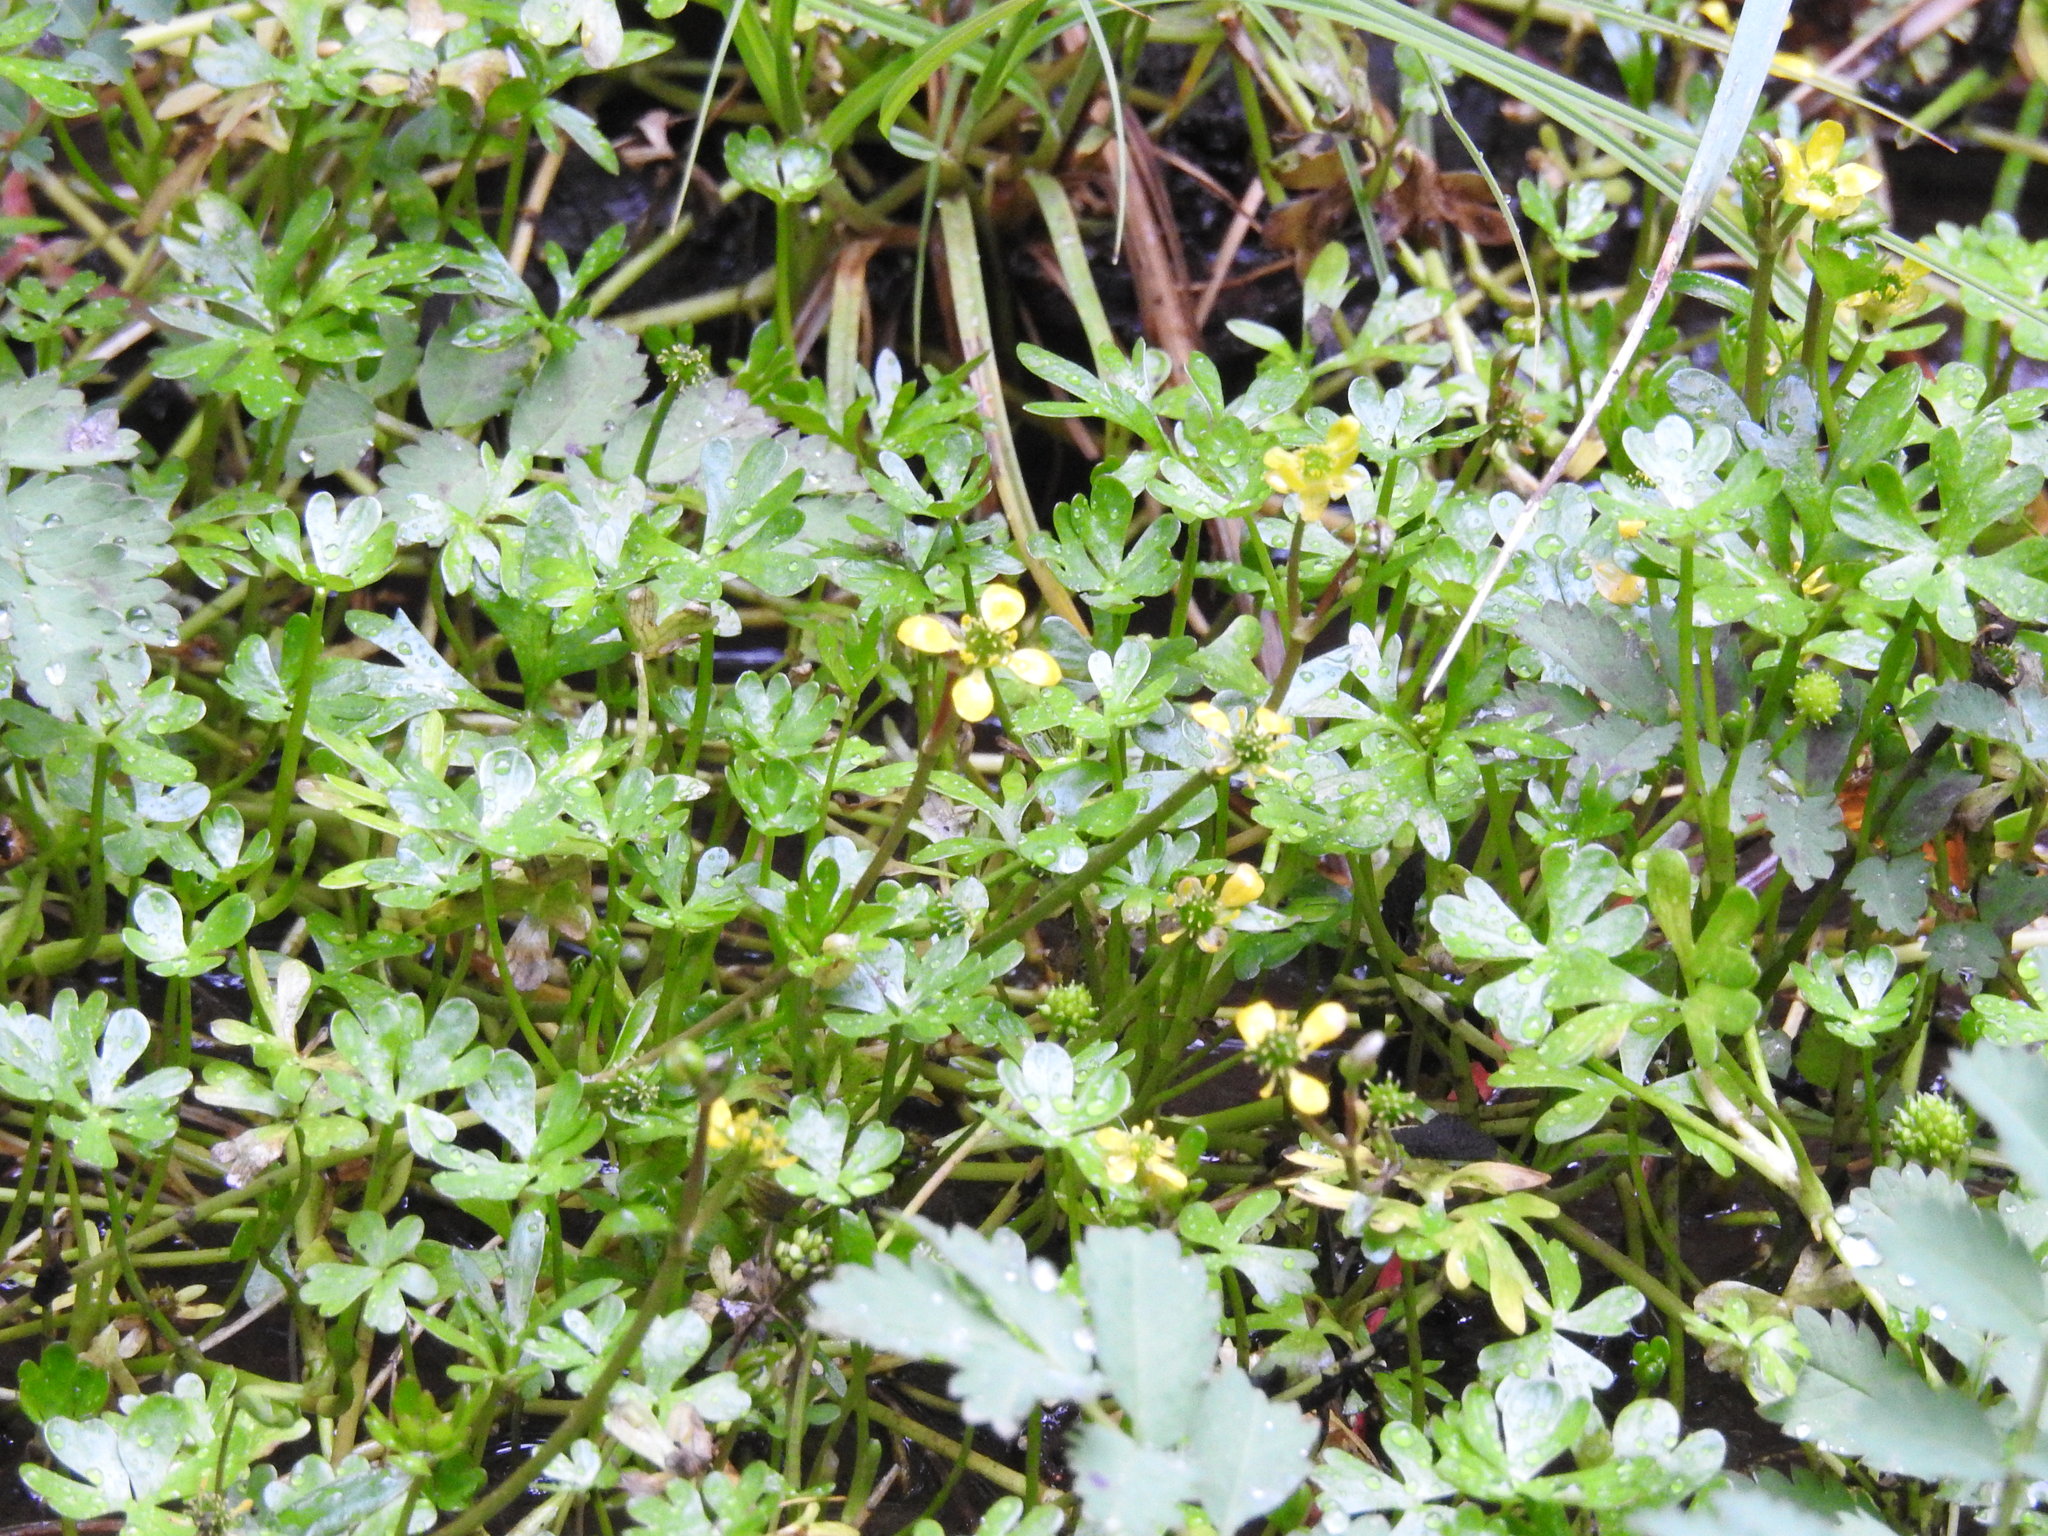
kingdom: Plantae
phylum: Tracheophyta
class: Magnoliopsida
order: Ranunculales
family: Ranunculaceae
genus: Ranunculus
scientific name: Ranunculus fuegianus
